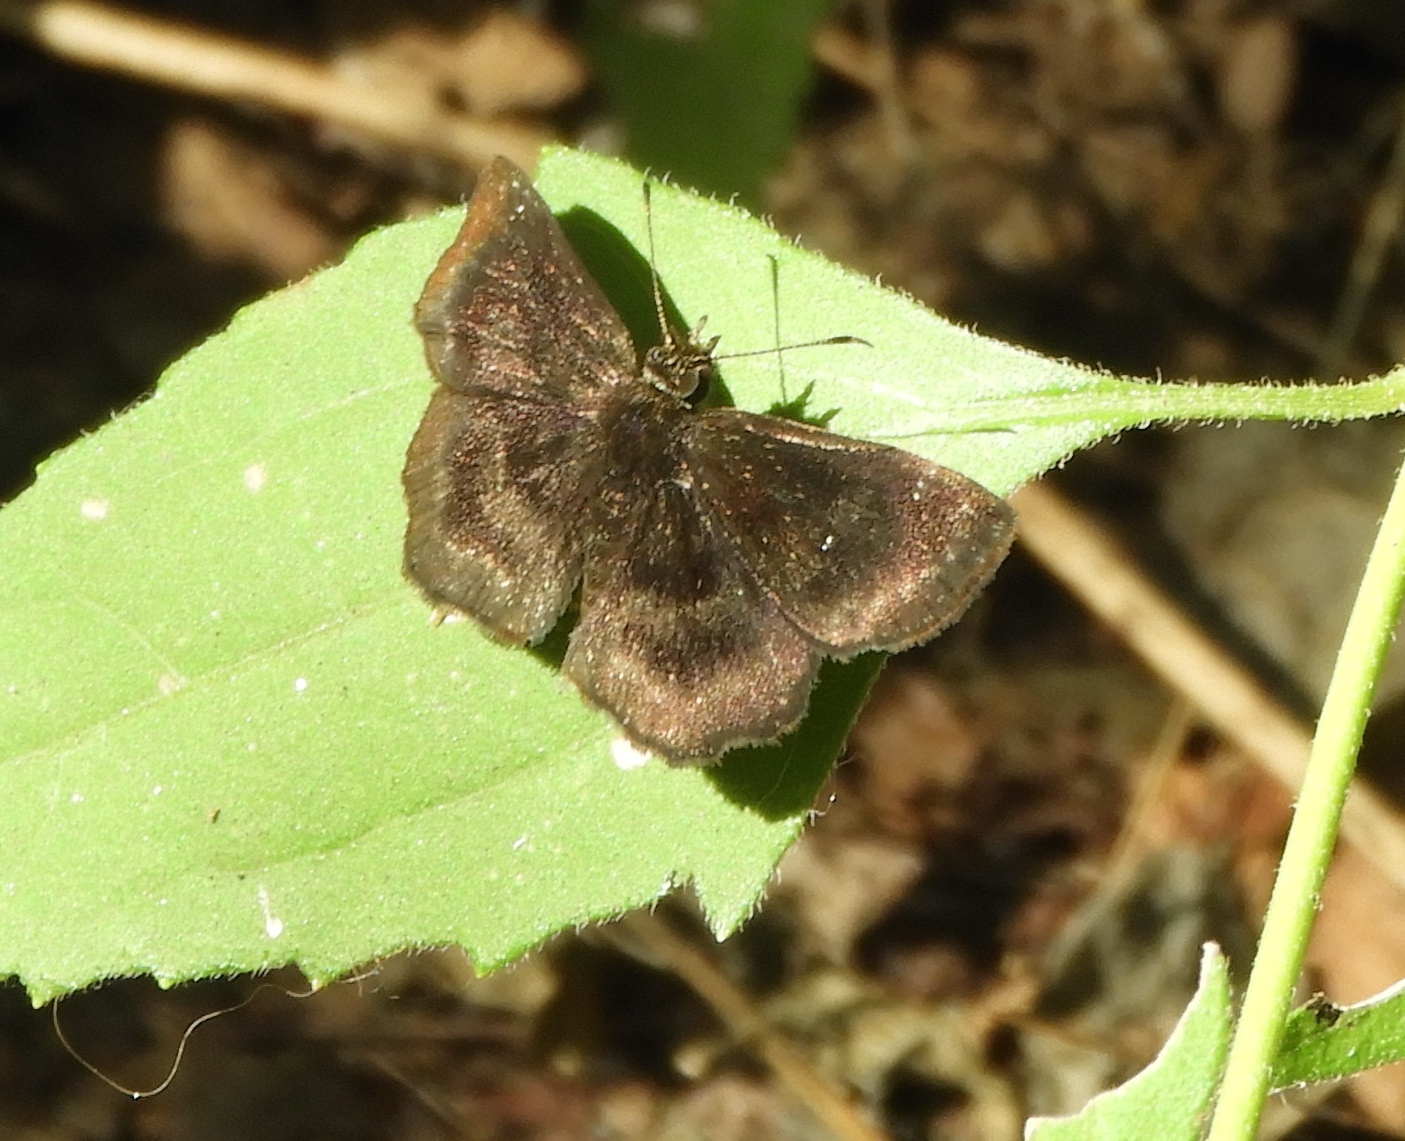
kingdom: Animalia
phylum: Arthropoda
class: Insecta
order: Lepidoptera
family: Hesperiidae
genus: Staphylus
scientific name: Staphylus mazans
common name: Mazans scallopwing
